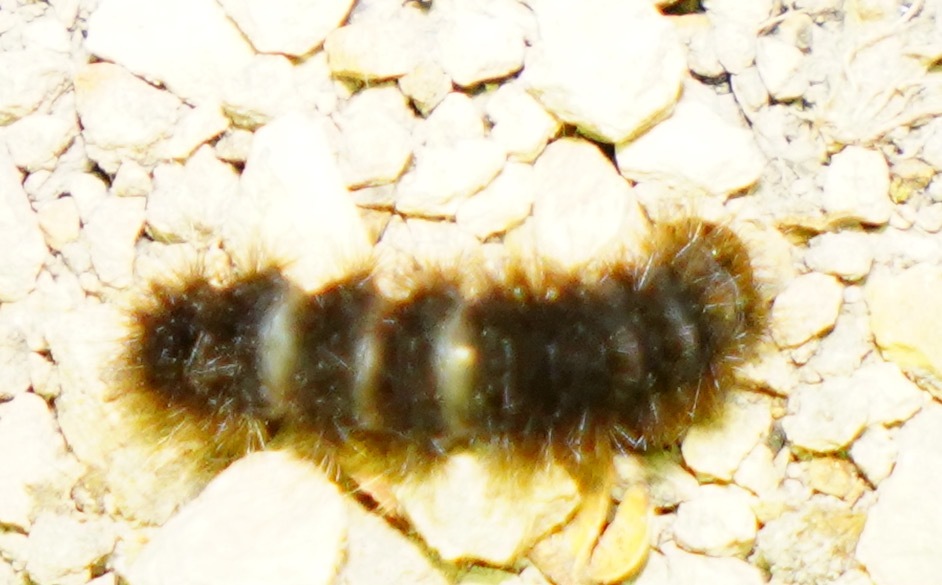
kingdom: Animalia
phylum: Arthropoda
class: Insecta
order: Lepidoptera
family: Erebidae
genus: Hemihyalea
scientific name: Hemihyalea edwardsii
